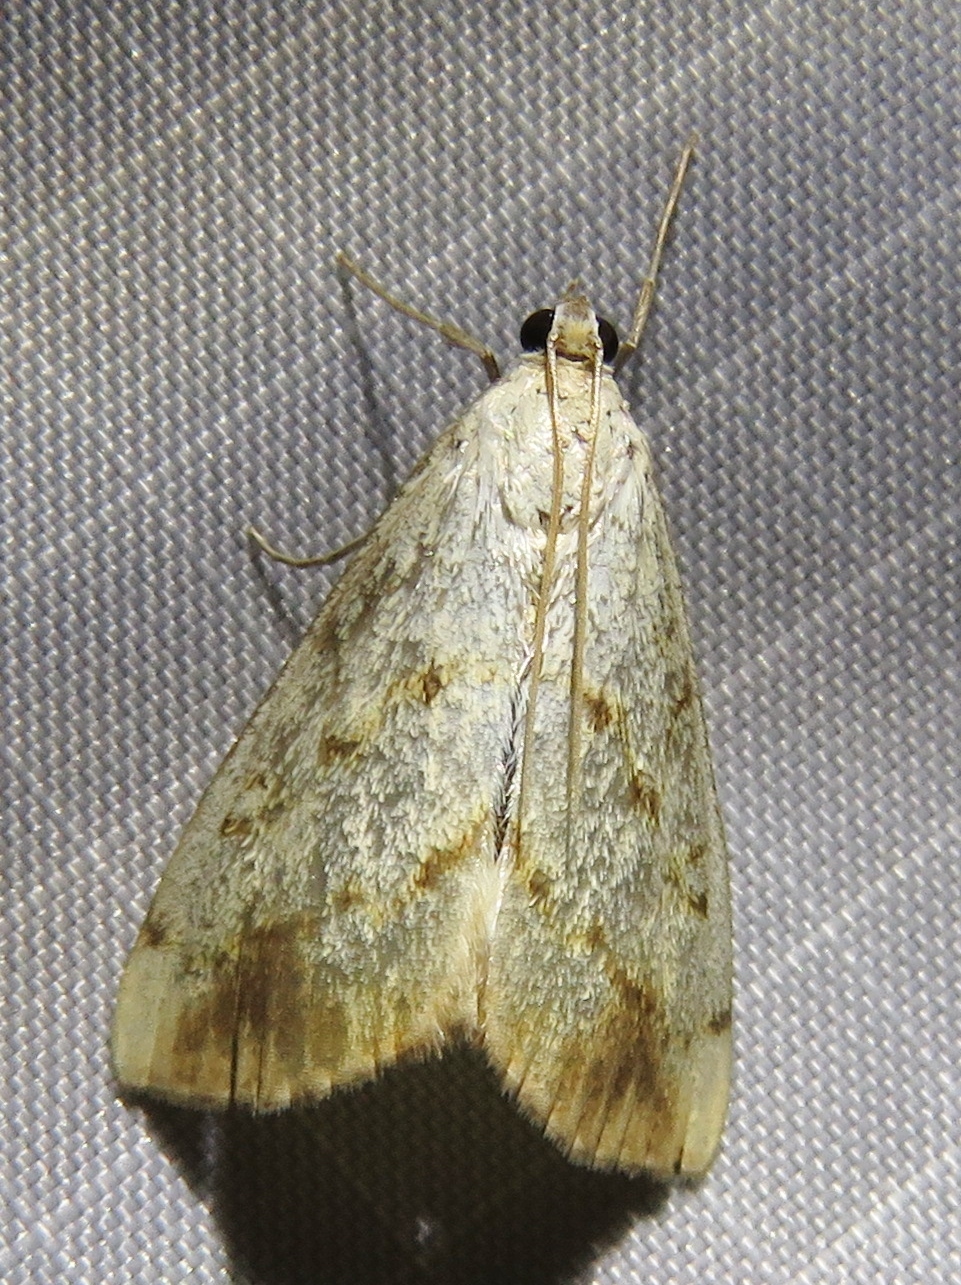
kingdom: Animalia
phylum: Arthropoda
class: Insecta
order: Lepidoptera
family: Crambidae
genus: Evergestis
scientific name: Evergestis extimalis
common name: Marbled yellow pearl
